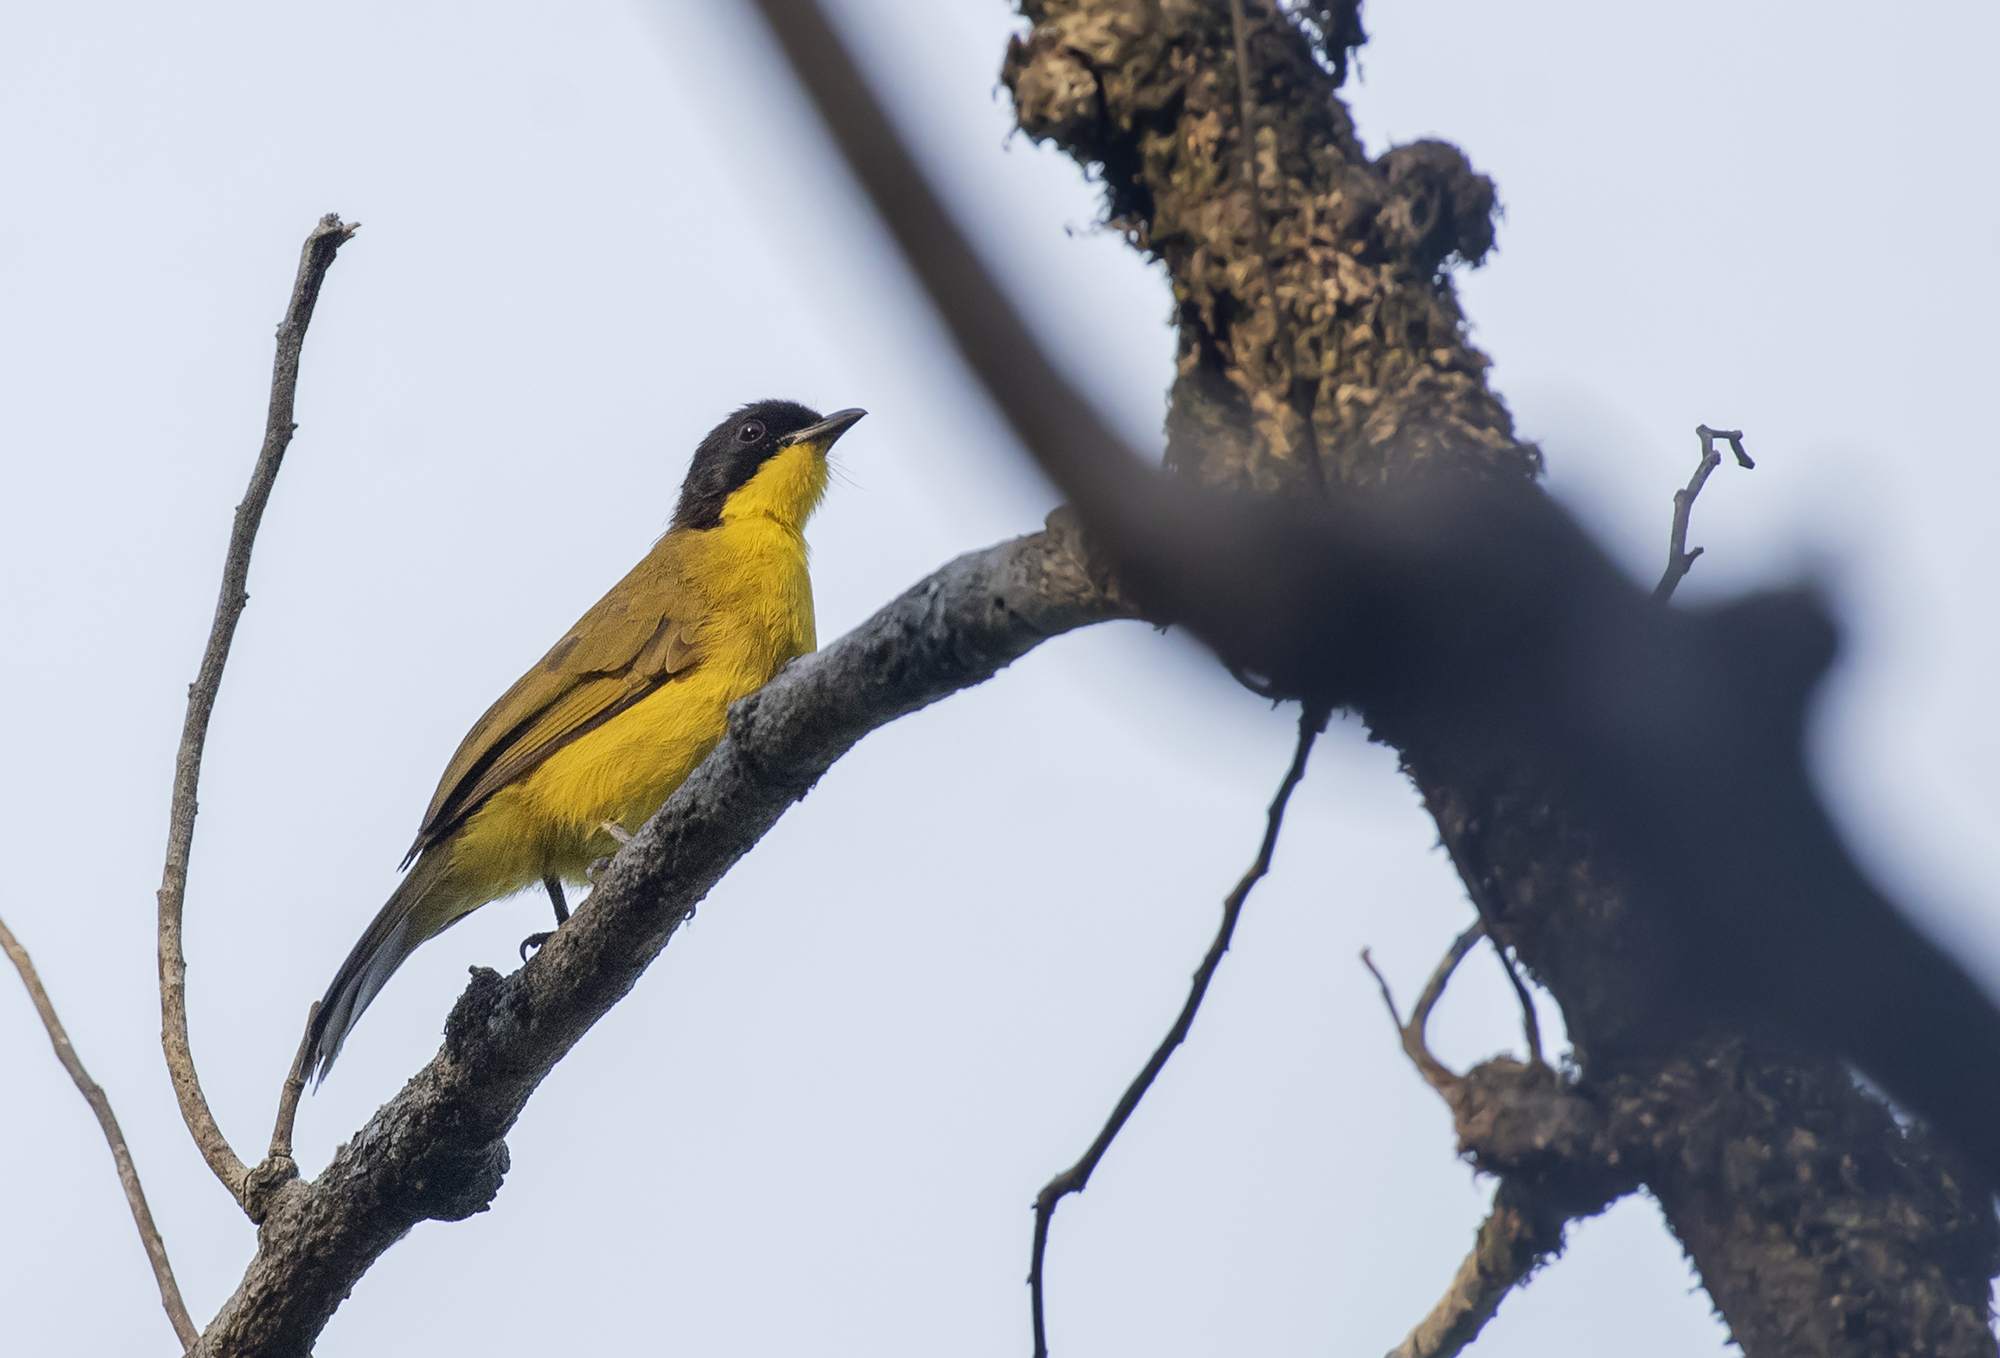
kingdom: Animalia
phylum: Chordata
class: Aves
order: Passeriformes
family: Pycnonotidae
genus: Pycnonotus
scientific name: Pycnonotus melanicterus
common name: Black-crested bulbul
